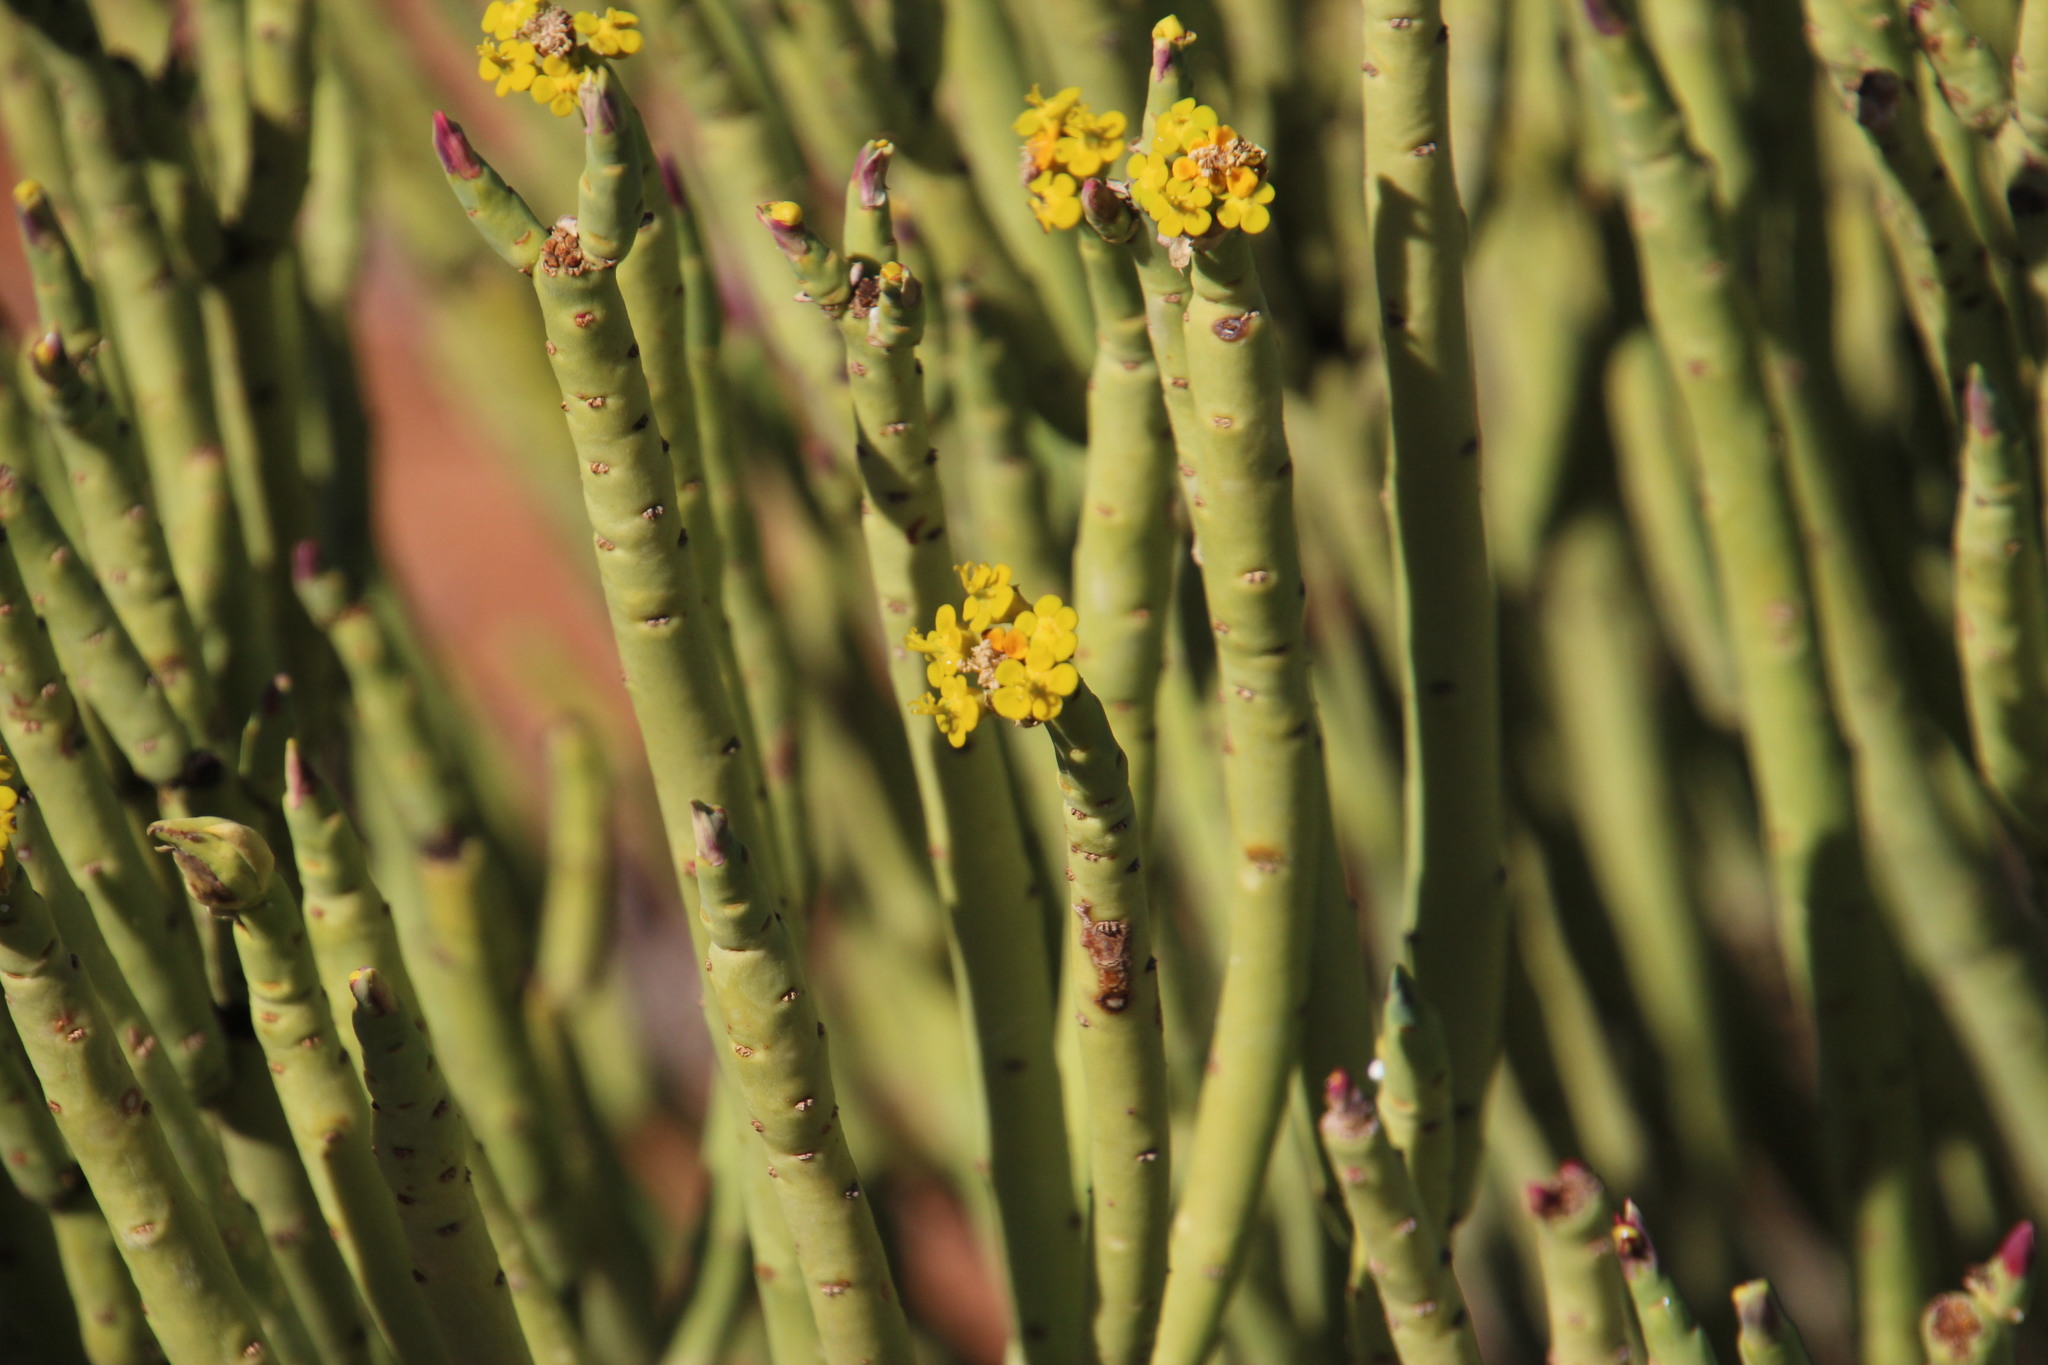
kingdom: Plantae
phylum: Tracheophyta
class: Magnoliopsida
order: Malpighiales
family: Euphorbiaceae
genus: Euphorbia
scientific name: Euphorbia mauritanica
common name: Jackal's-food
